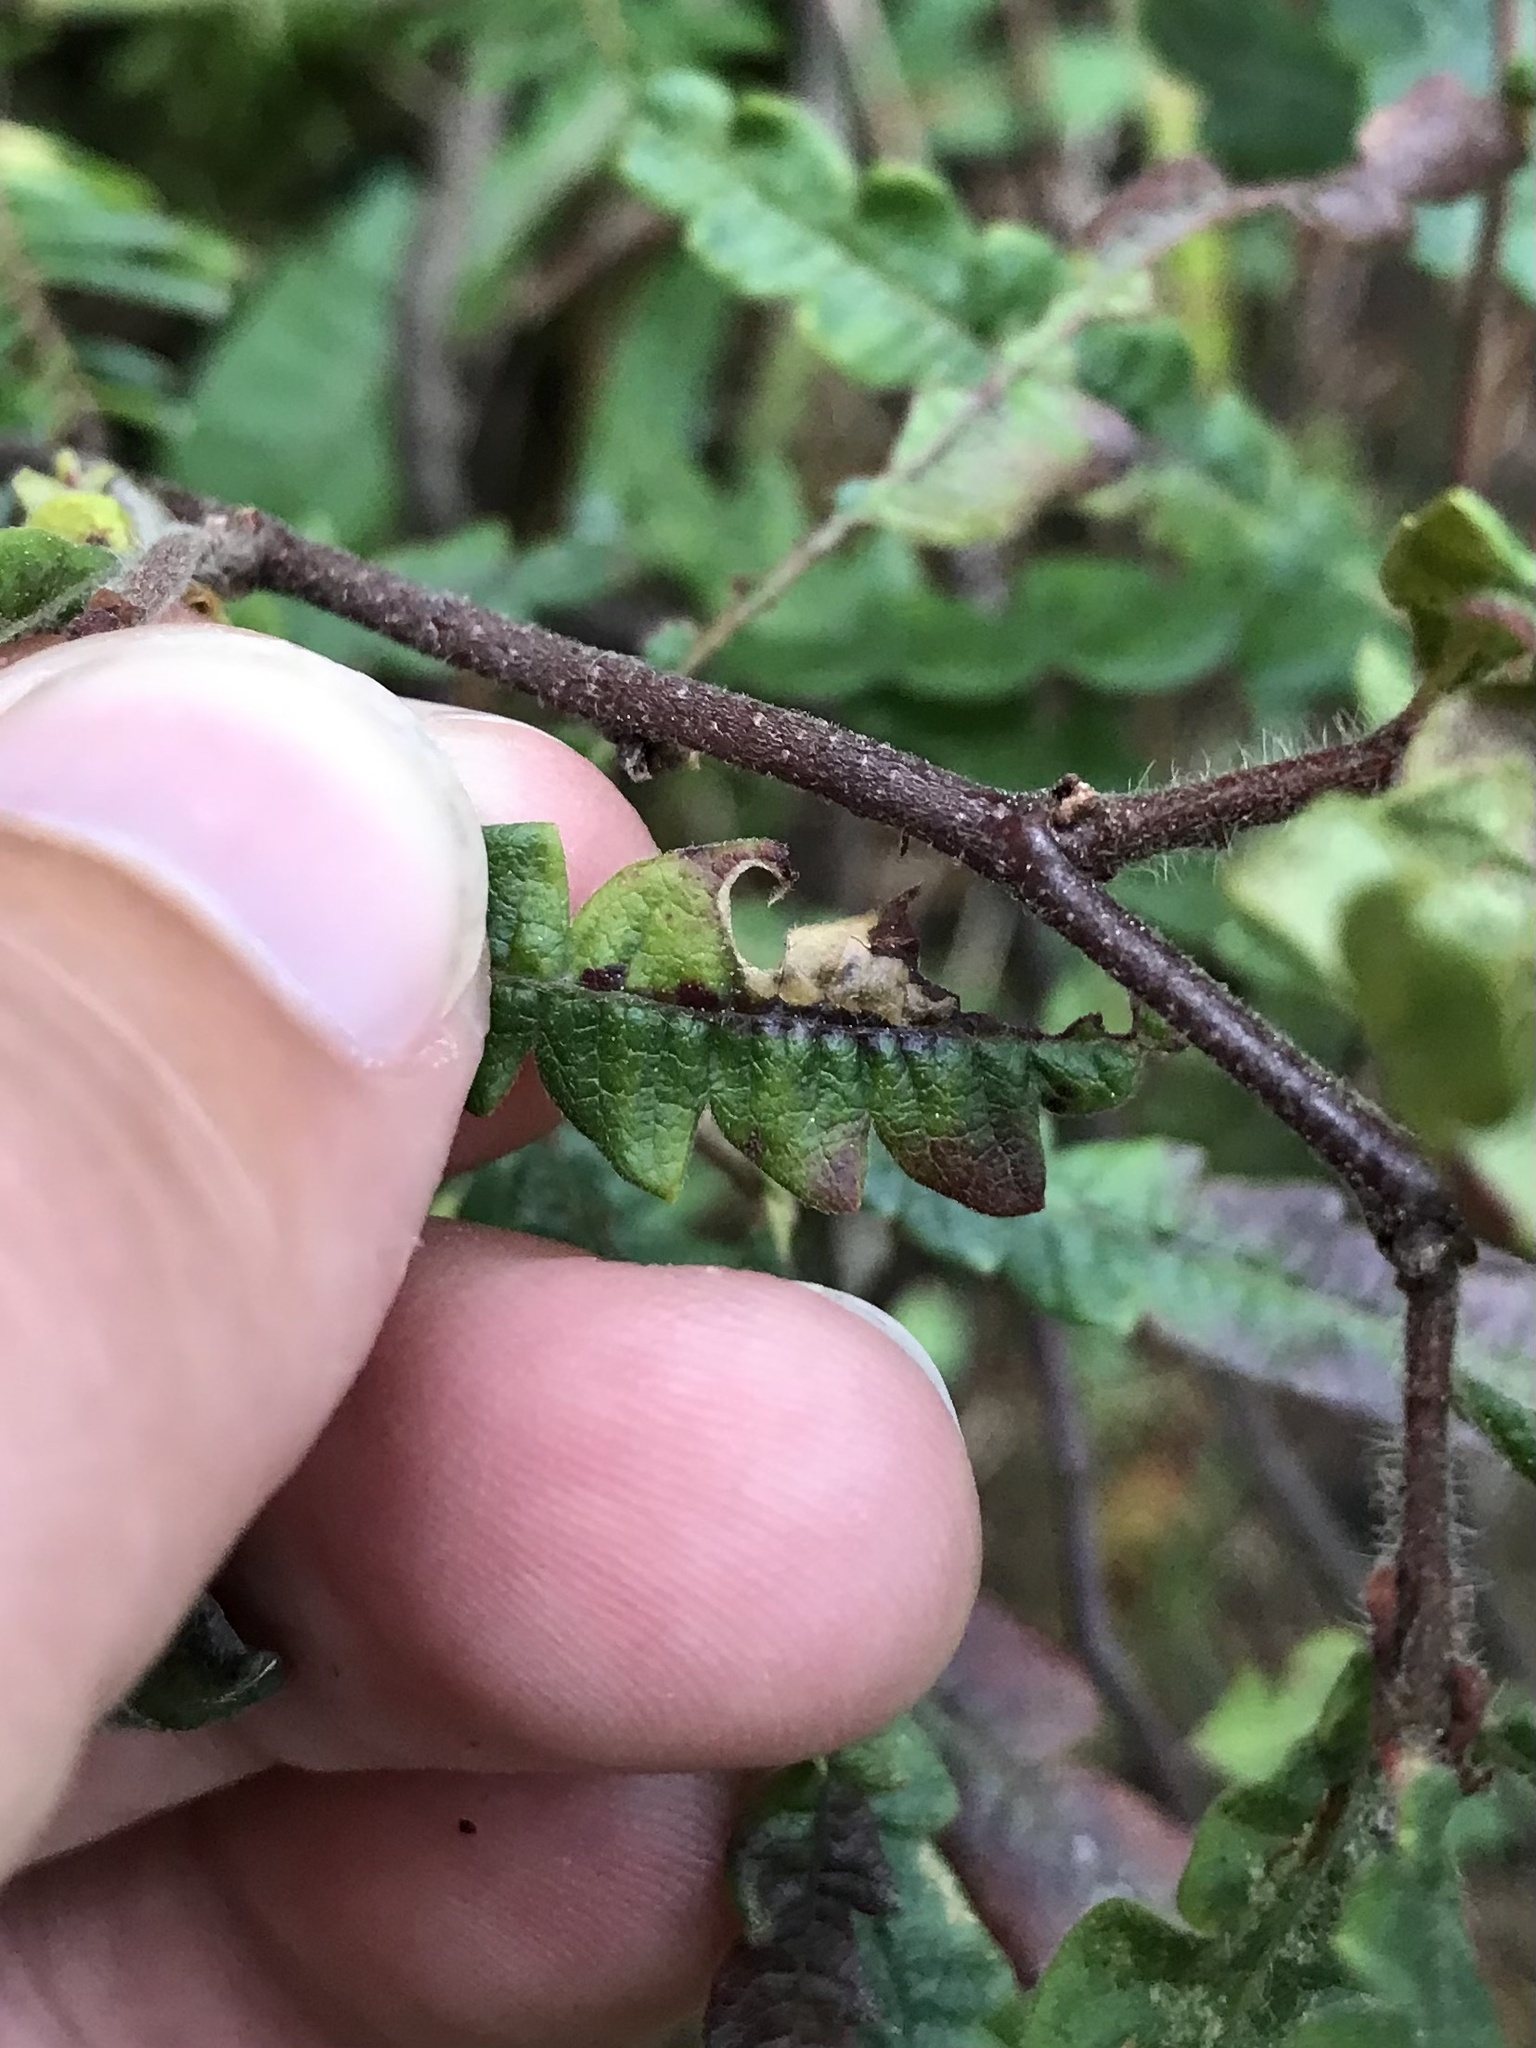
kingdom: Animalia
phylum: Arthropoda
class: Insecta
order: Lepidoptera
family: Heliozelidae
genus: Antispila
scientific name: Antispila argentifera
